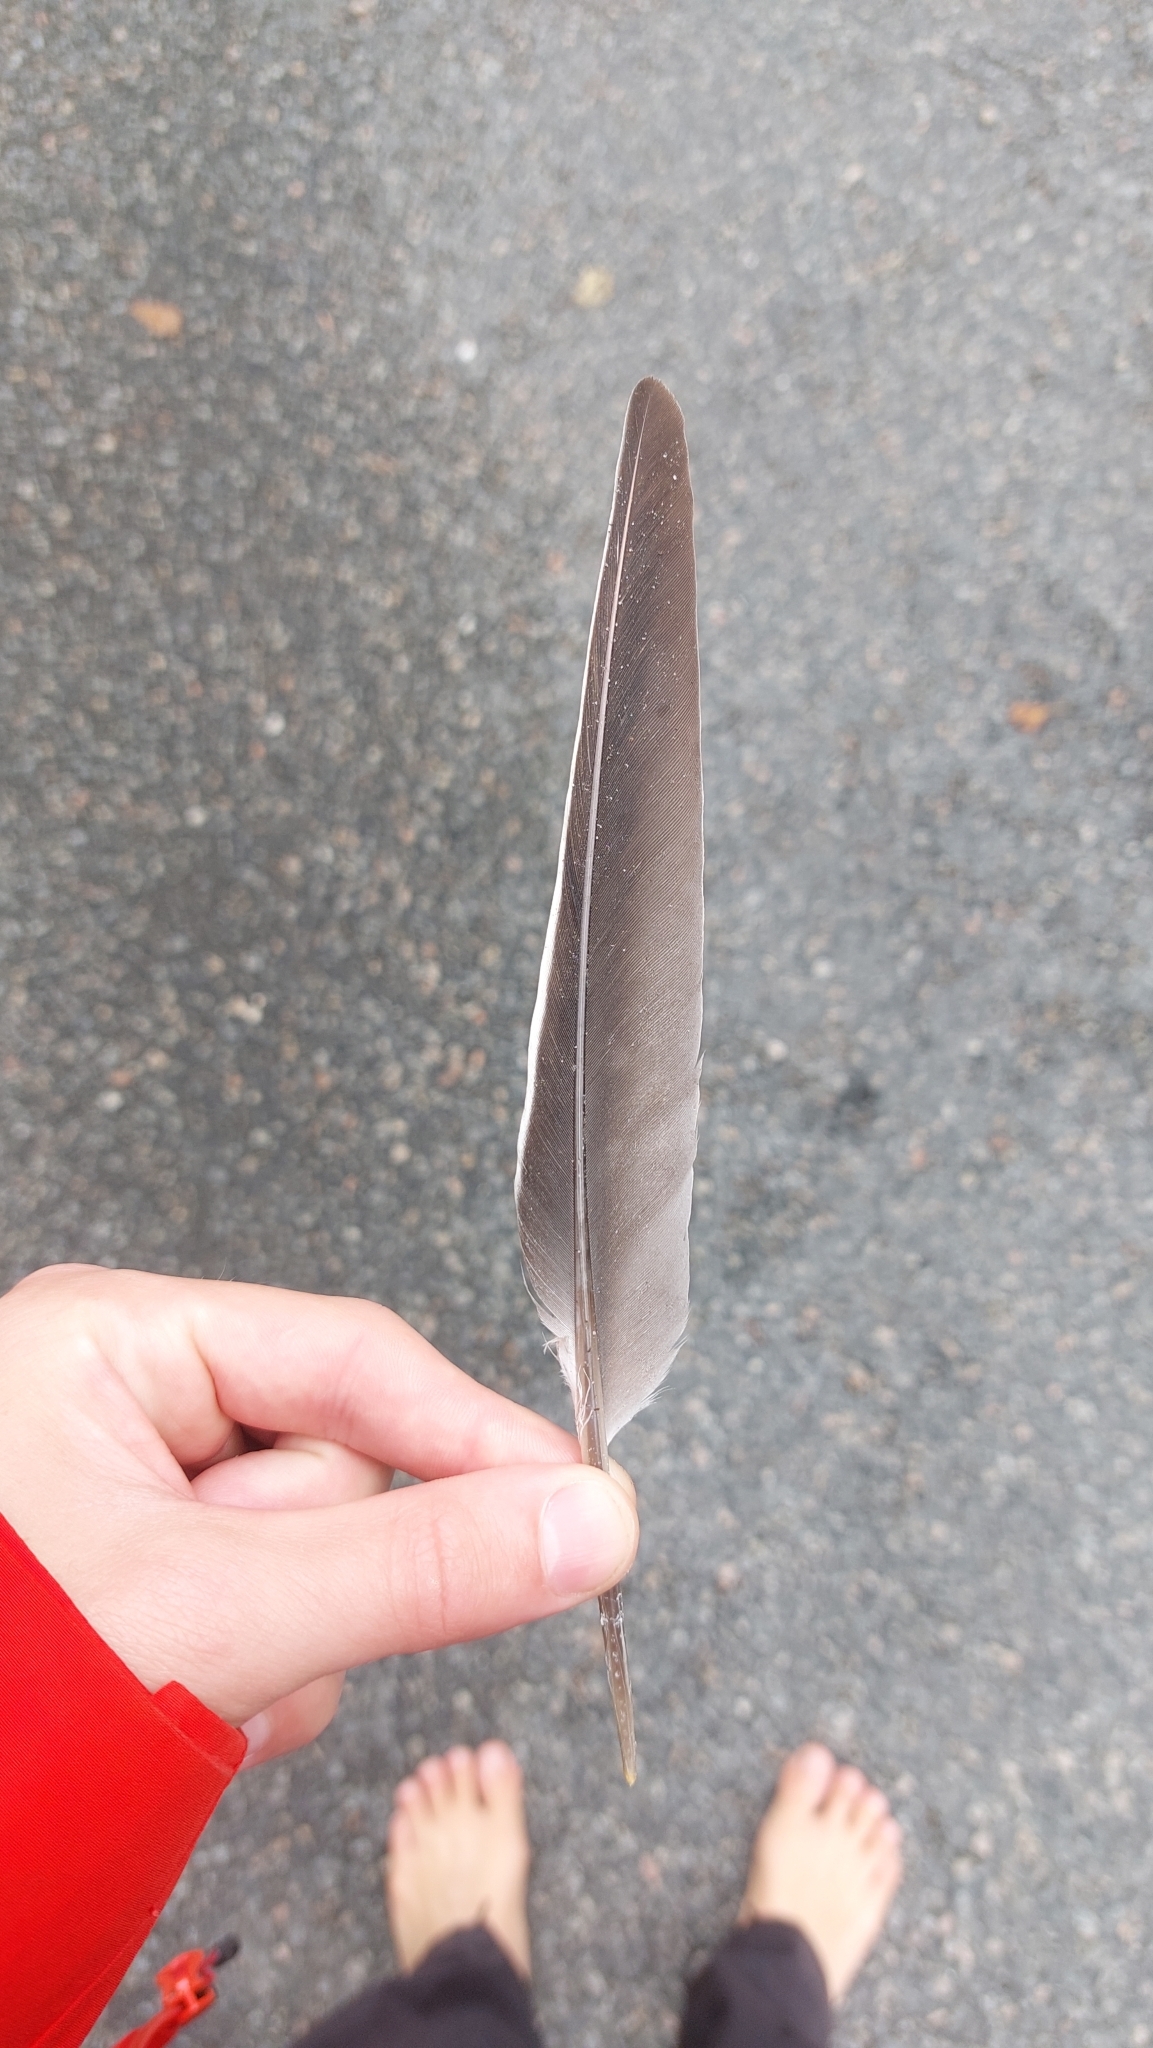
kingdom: Animalia
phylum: Chordata
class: Aves
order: Columbiformes
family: Columbidae
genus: Columba
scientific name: Columba palumbus
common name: Common wood pigeon
